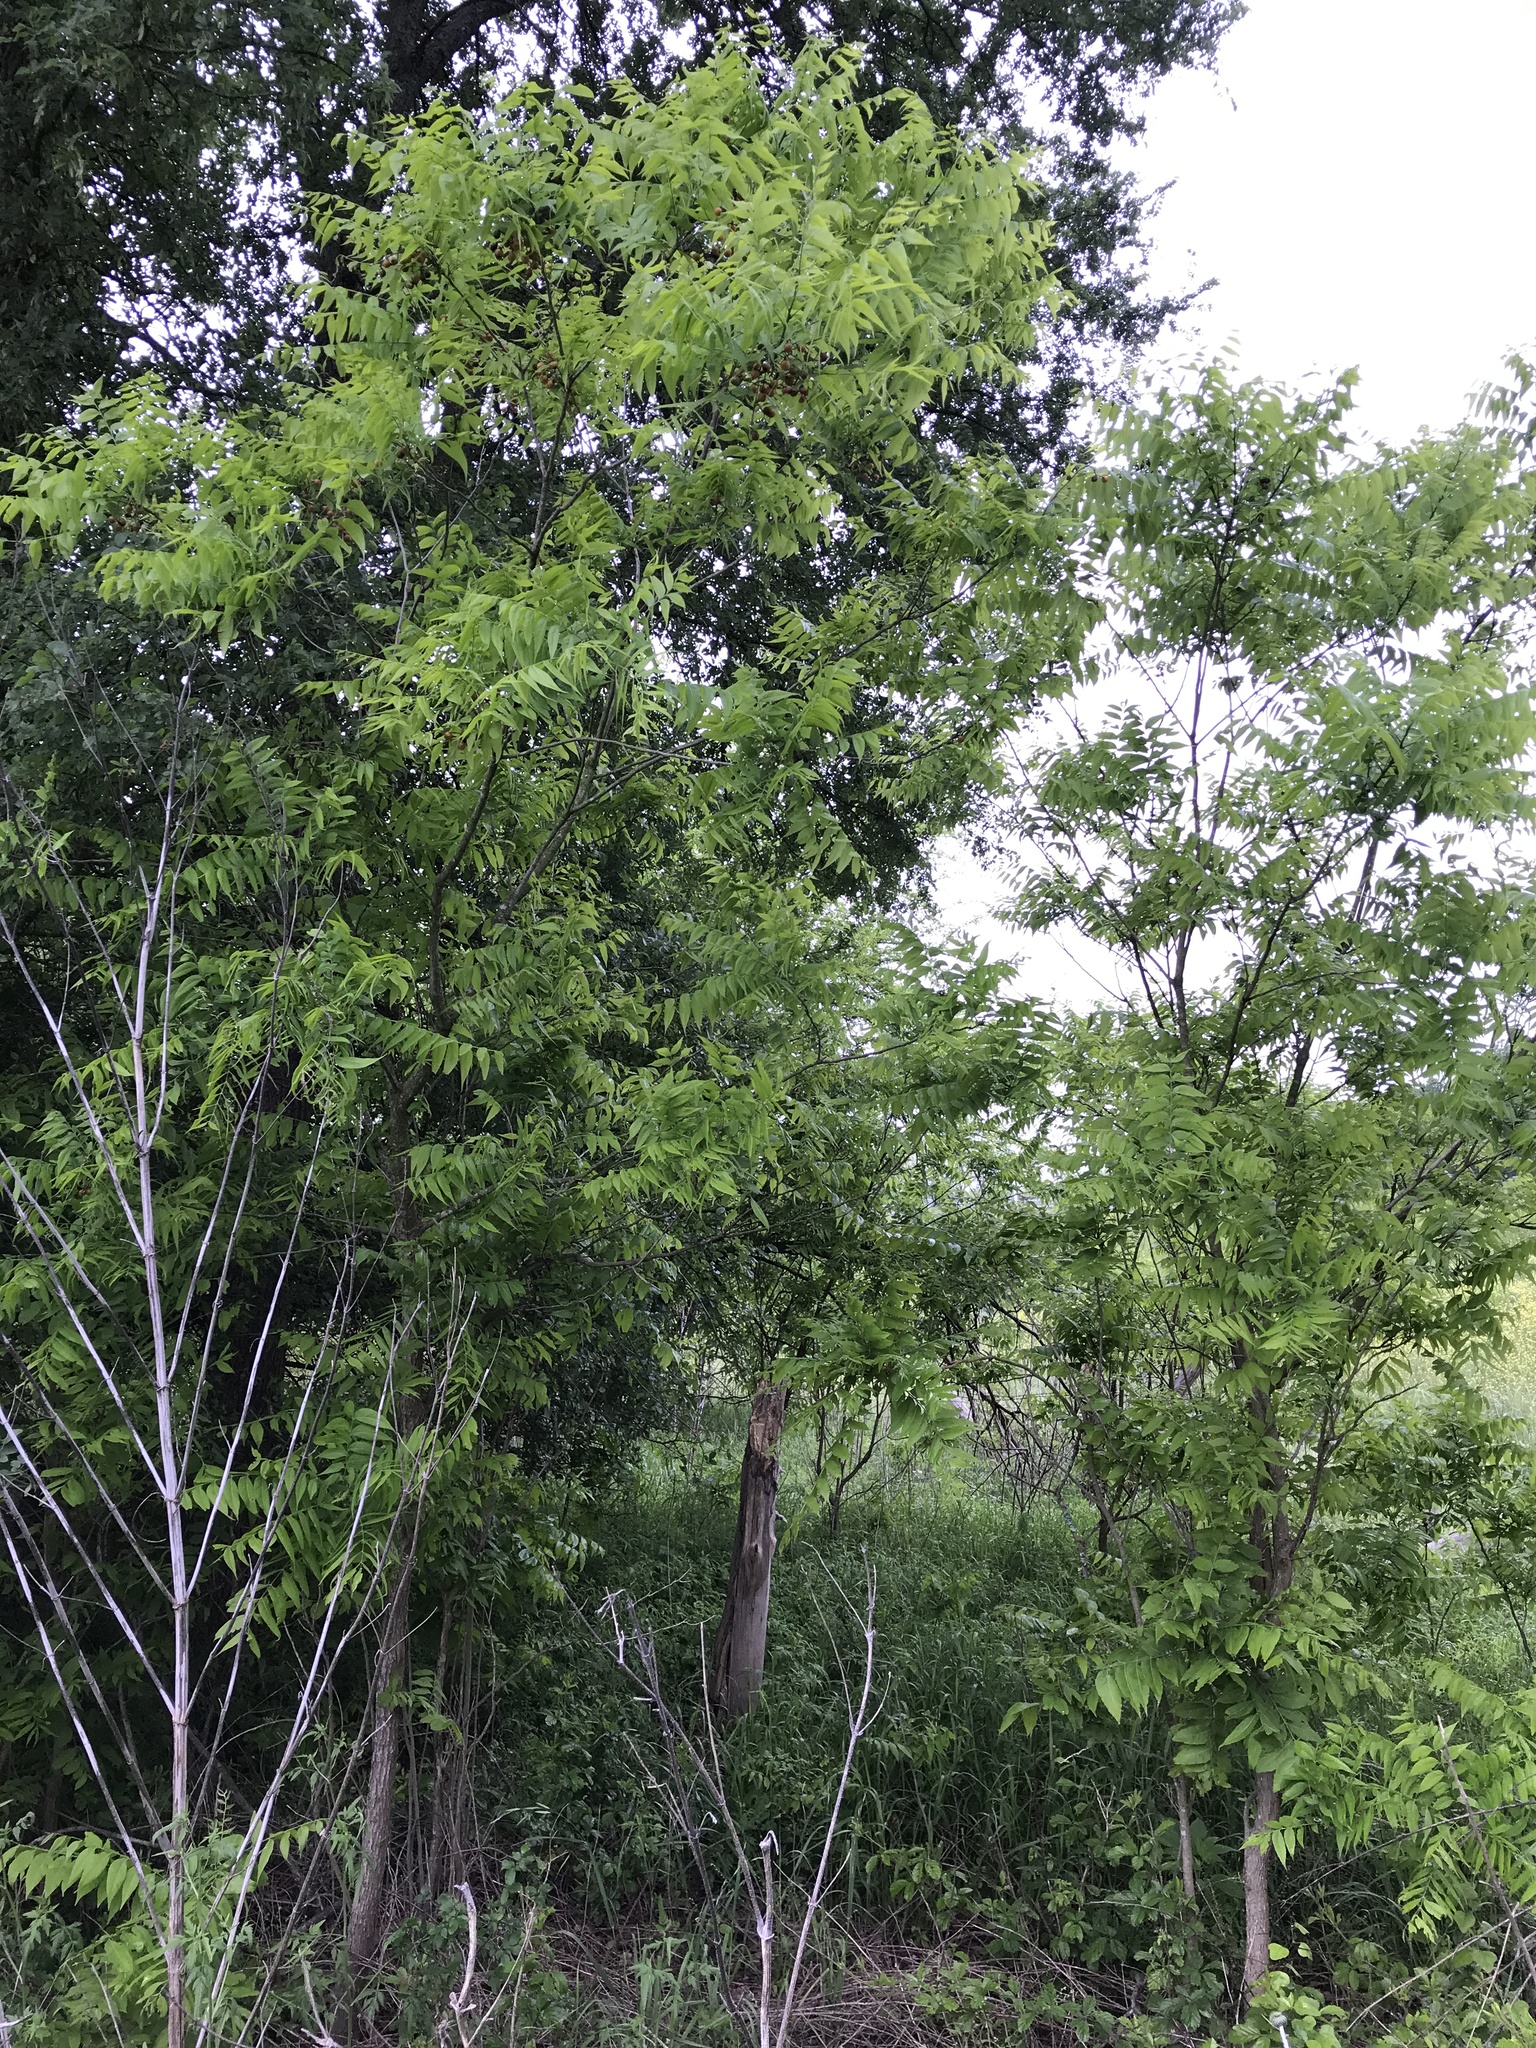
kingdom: Plantae
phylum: Tracheophyta
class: Magnoliopsida
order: Sapindales
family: Sapindaceae
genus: Sapindus
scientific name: Sapindus drummondii
